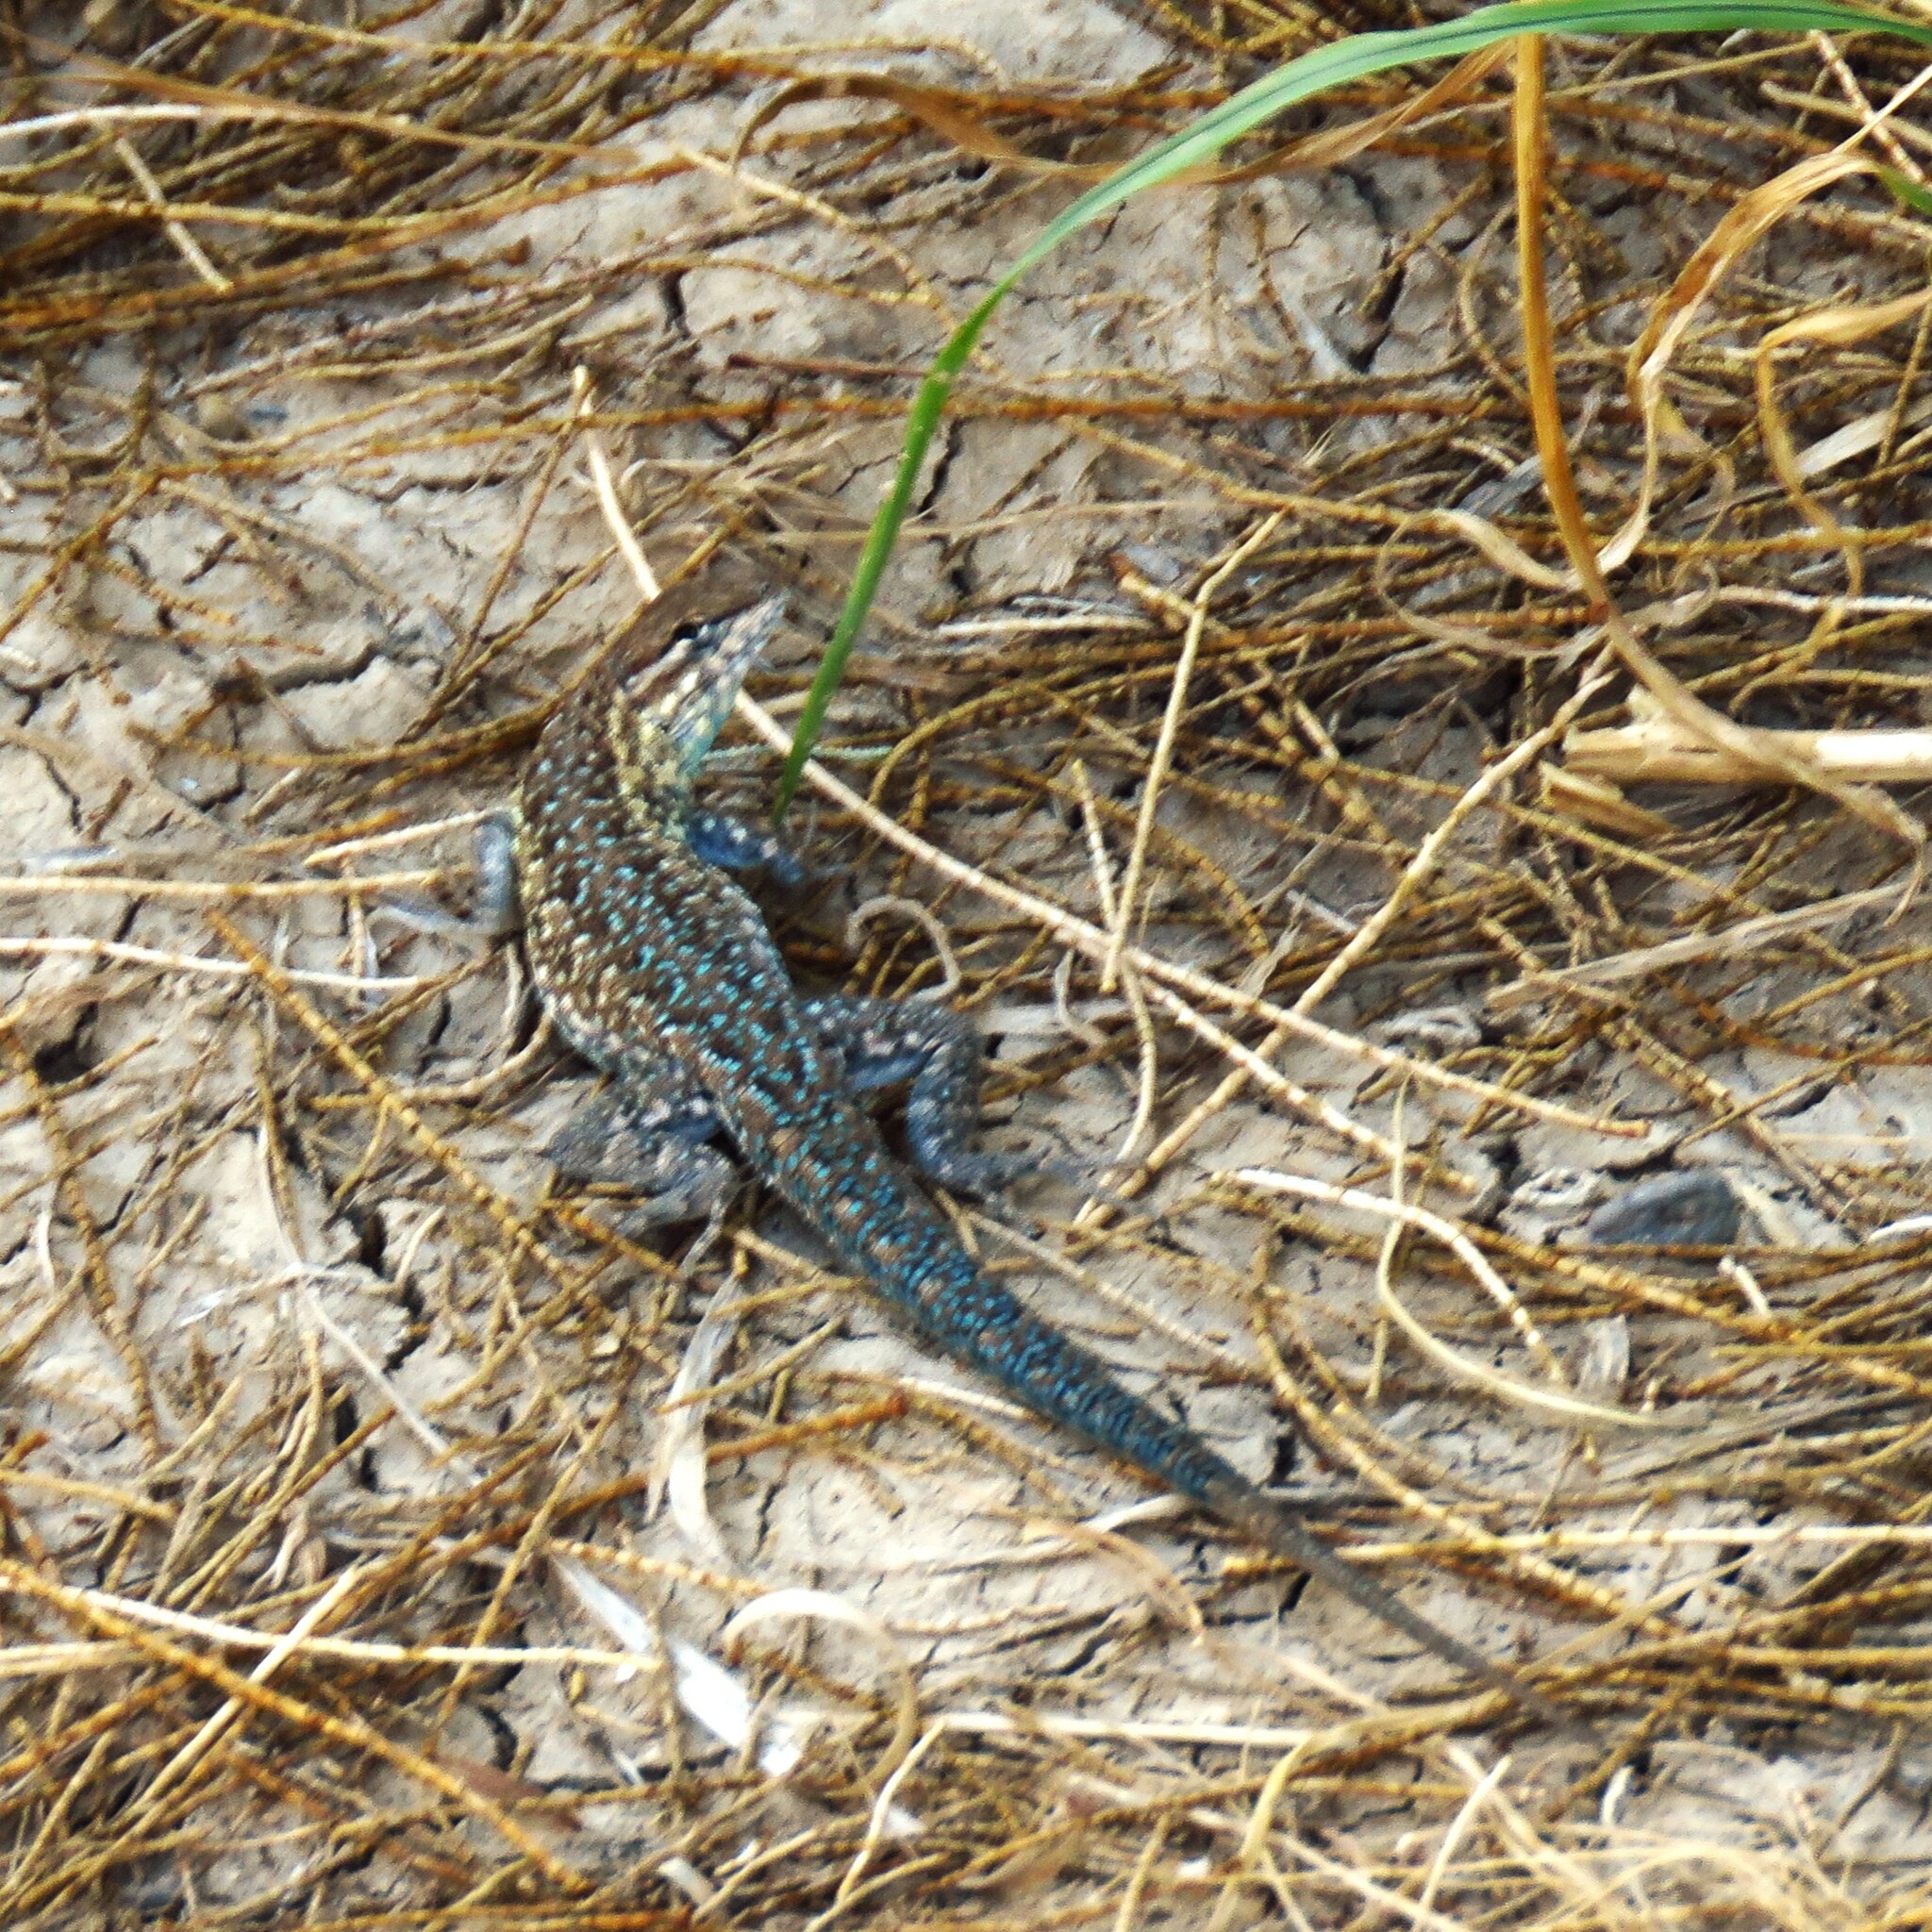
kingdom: Animalia
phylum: Chordata
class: Squamata
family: Phrynosomatidae
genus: Uta
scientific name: Uta stansburiana
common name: Side-blotched lizard
